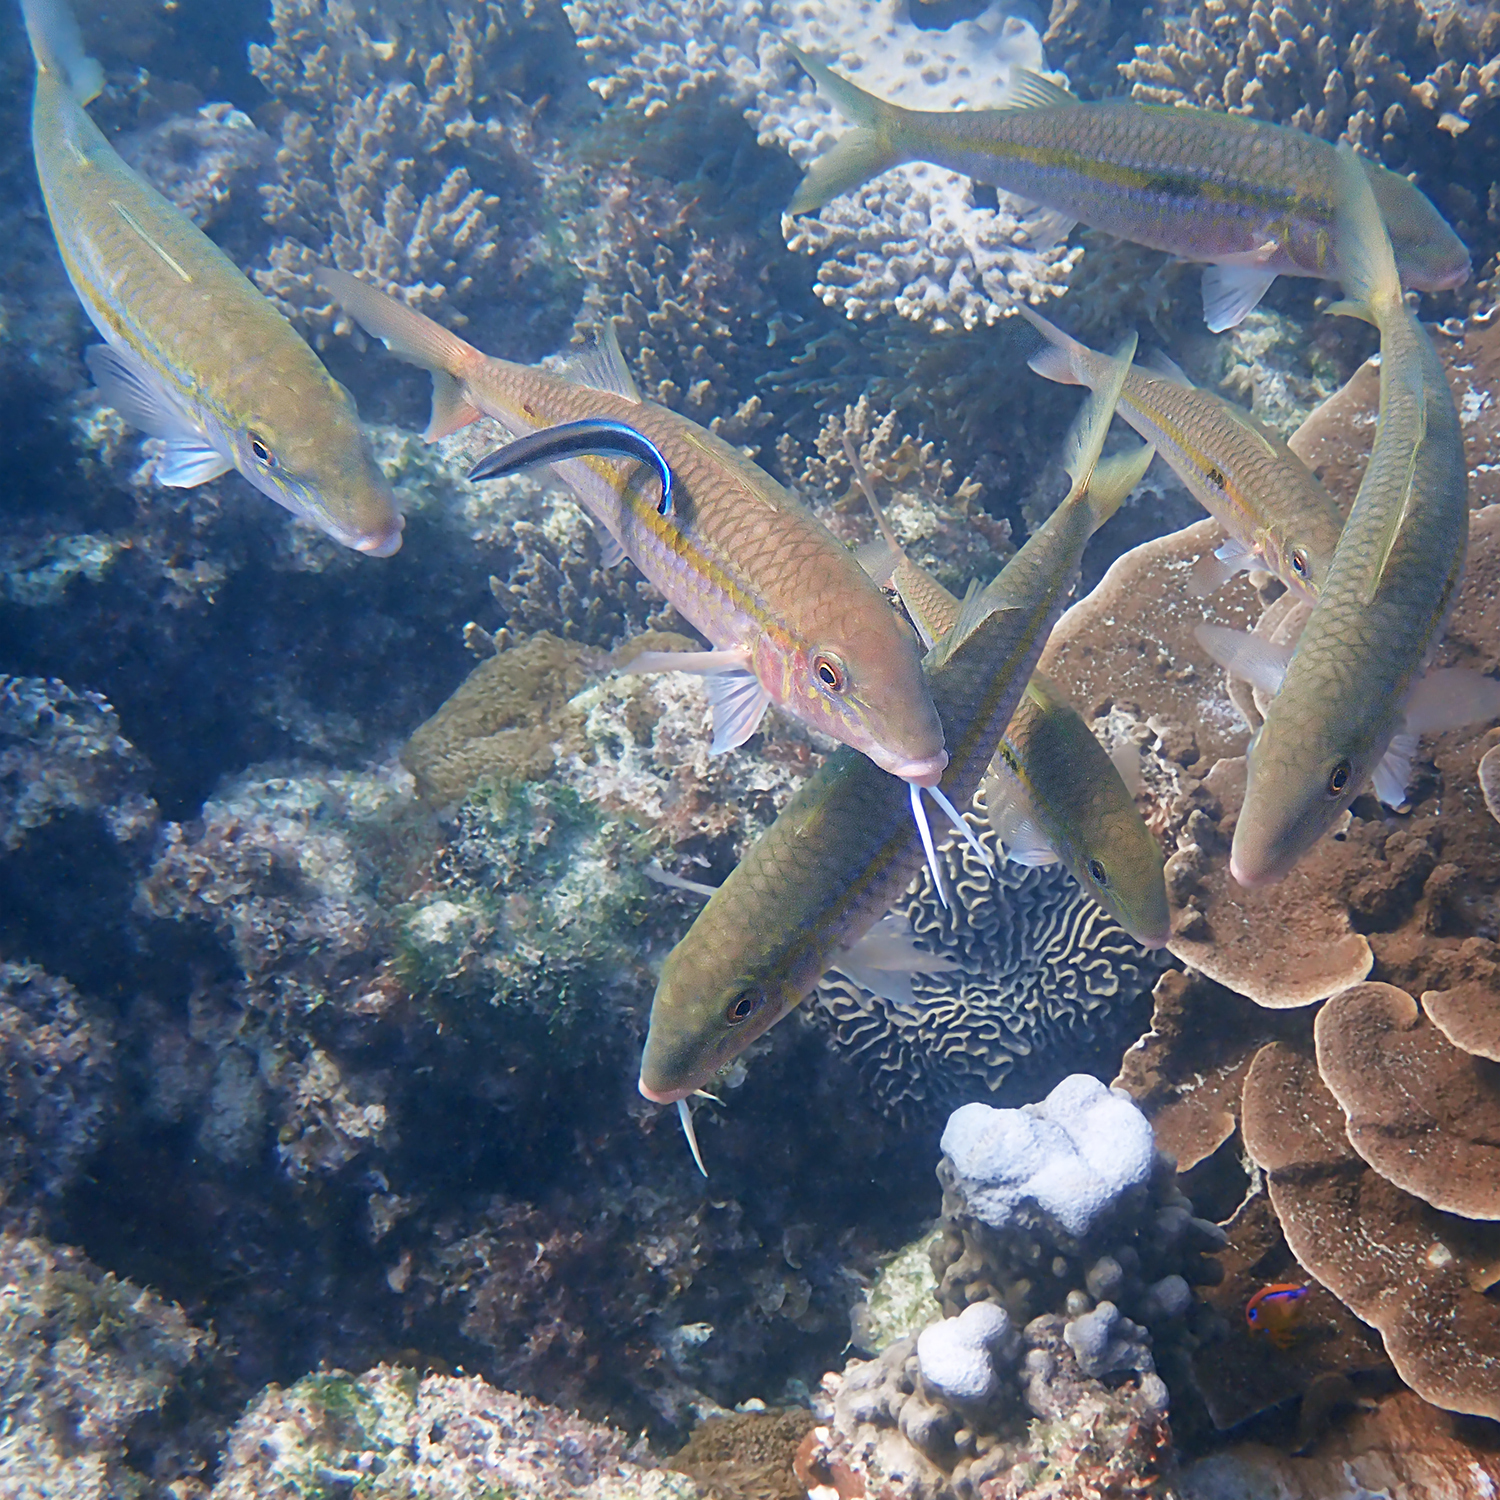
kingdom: Animalia
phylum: Chordata
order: Perciformes
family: Mullidae
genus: Mulloidichthys
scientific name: Mulloidichthys flavolineatus
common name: Yellowstripe goatfish
